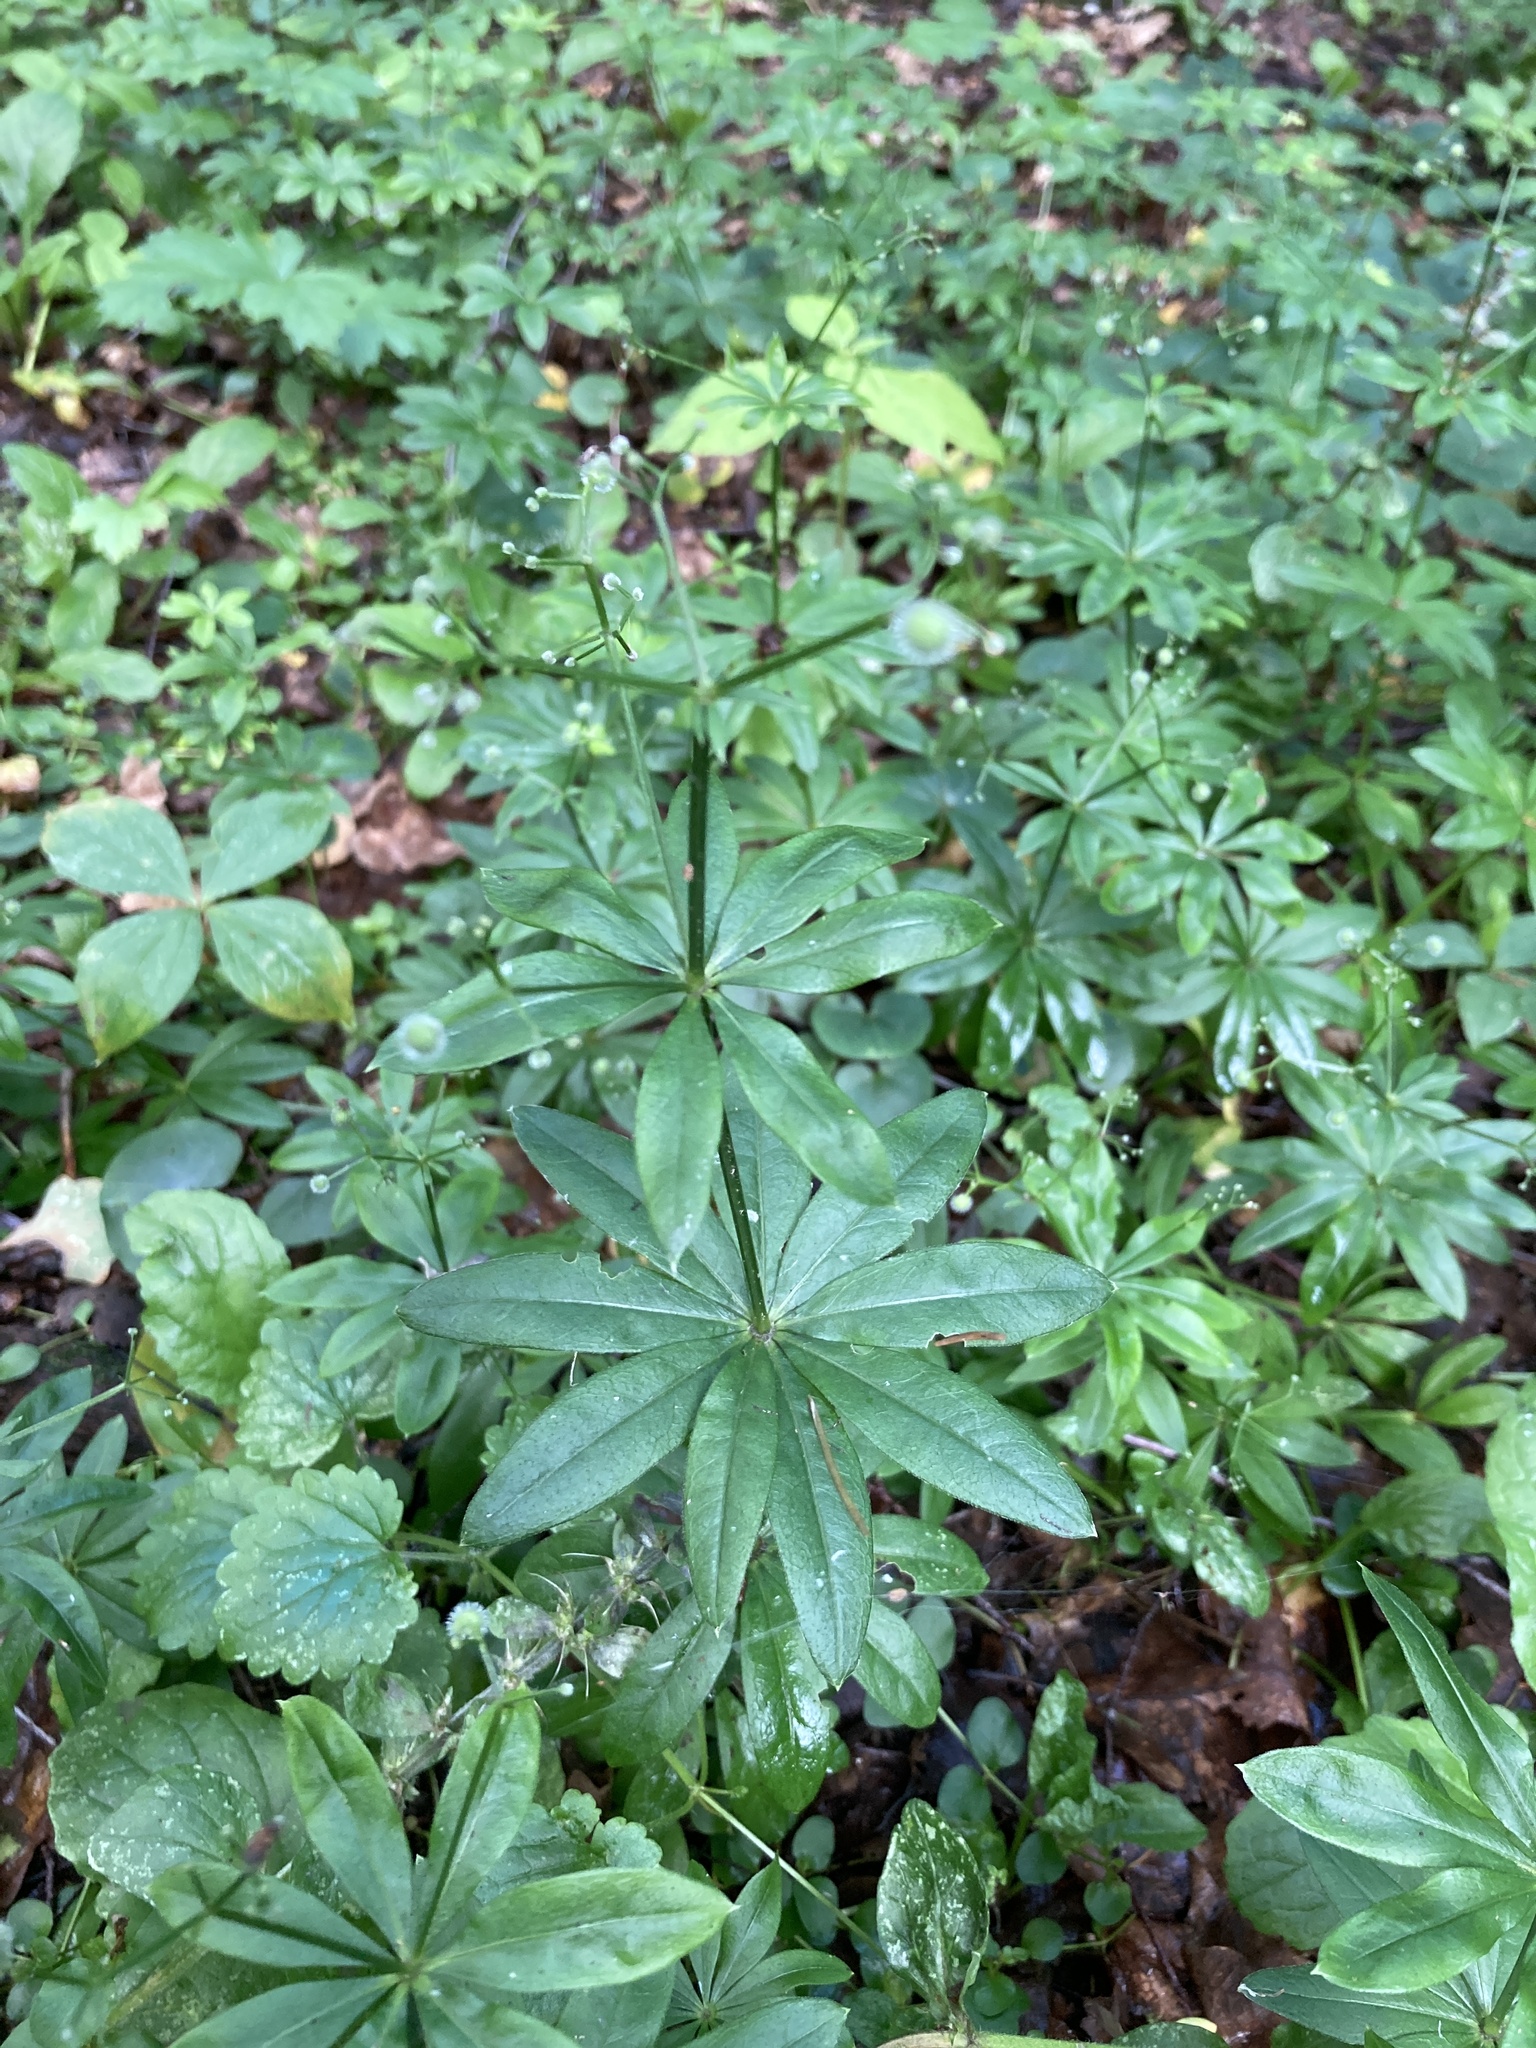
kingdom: Plantae
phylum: Tracheophyta
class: Magnoliopsida
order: Gentianales
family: Rubiaceae
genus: Galium
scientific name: Galium odoratum
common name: Sweet woodruff
